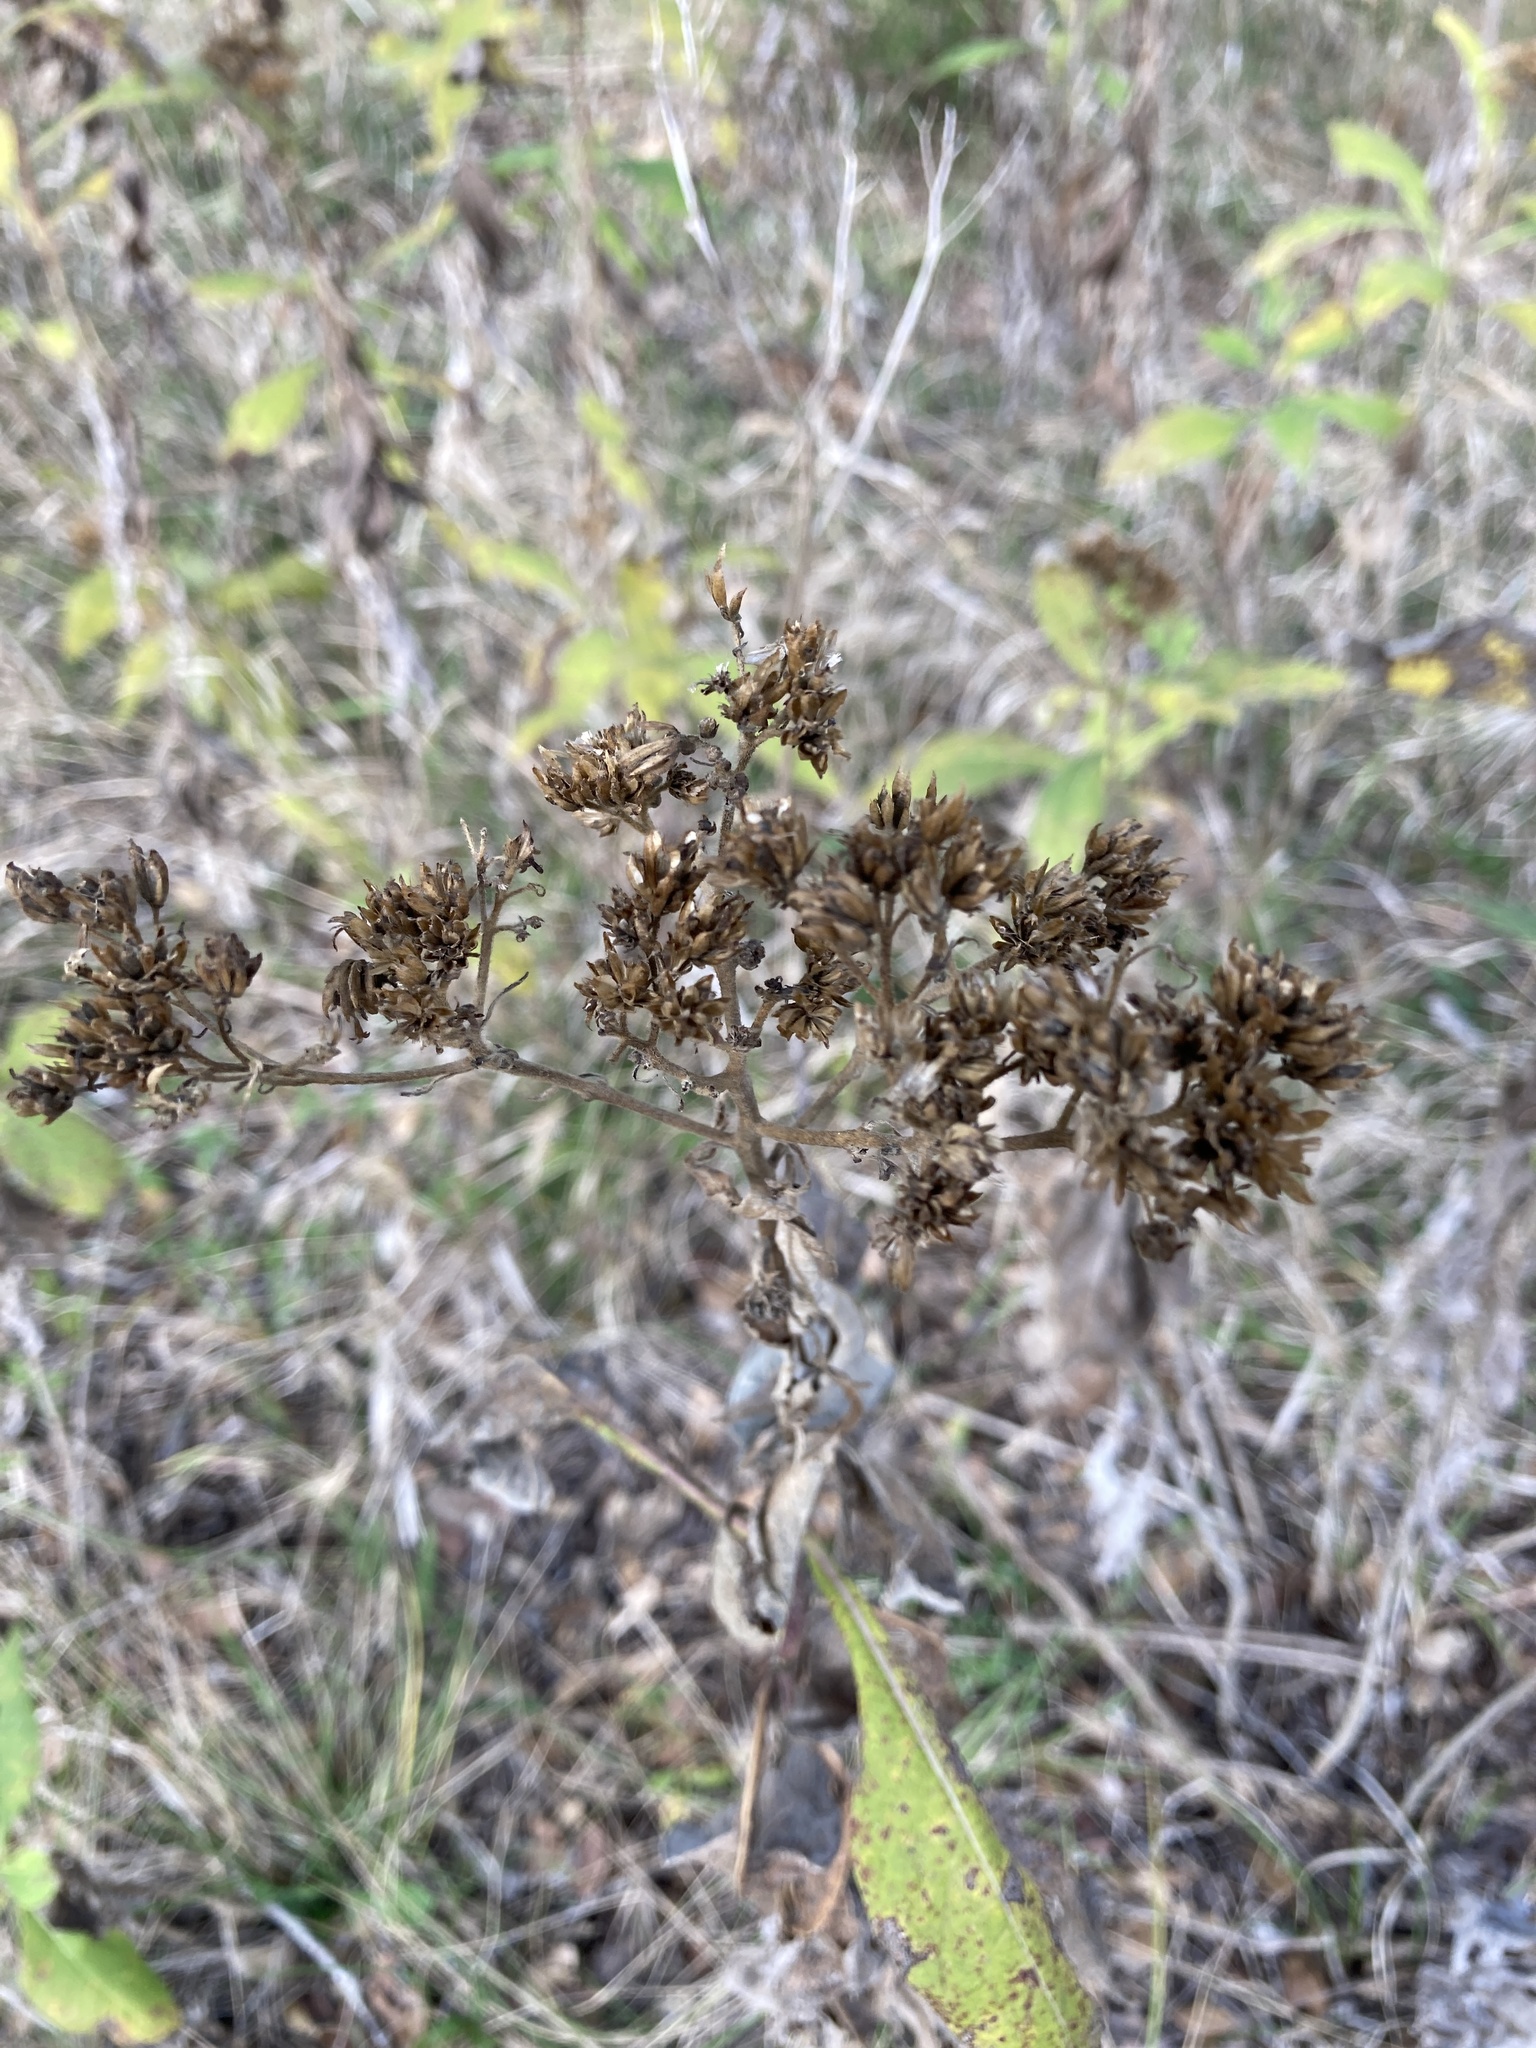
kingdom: Plantae
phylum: Tracheophyta
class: Magnoliopsida
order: Asterales
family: Asteraceae
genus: Verbesina
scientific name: Verbesina virginica
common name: Frostweed
